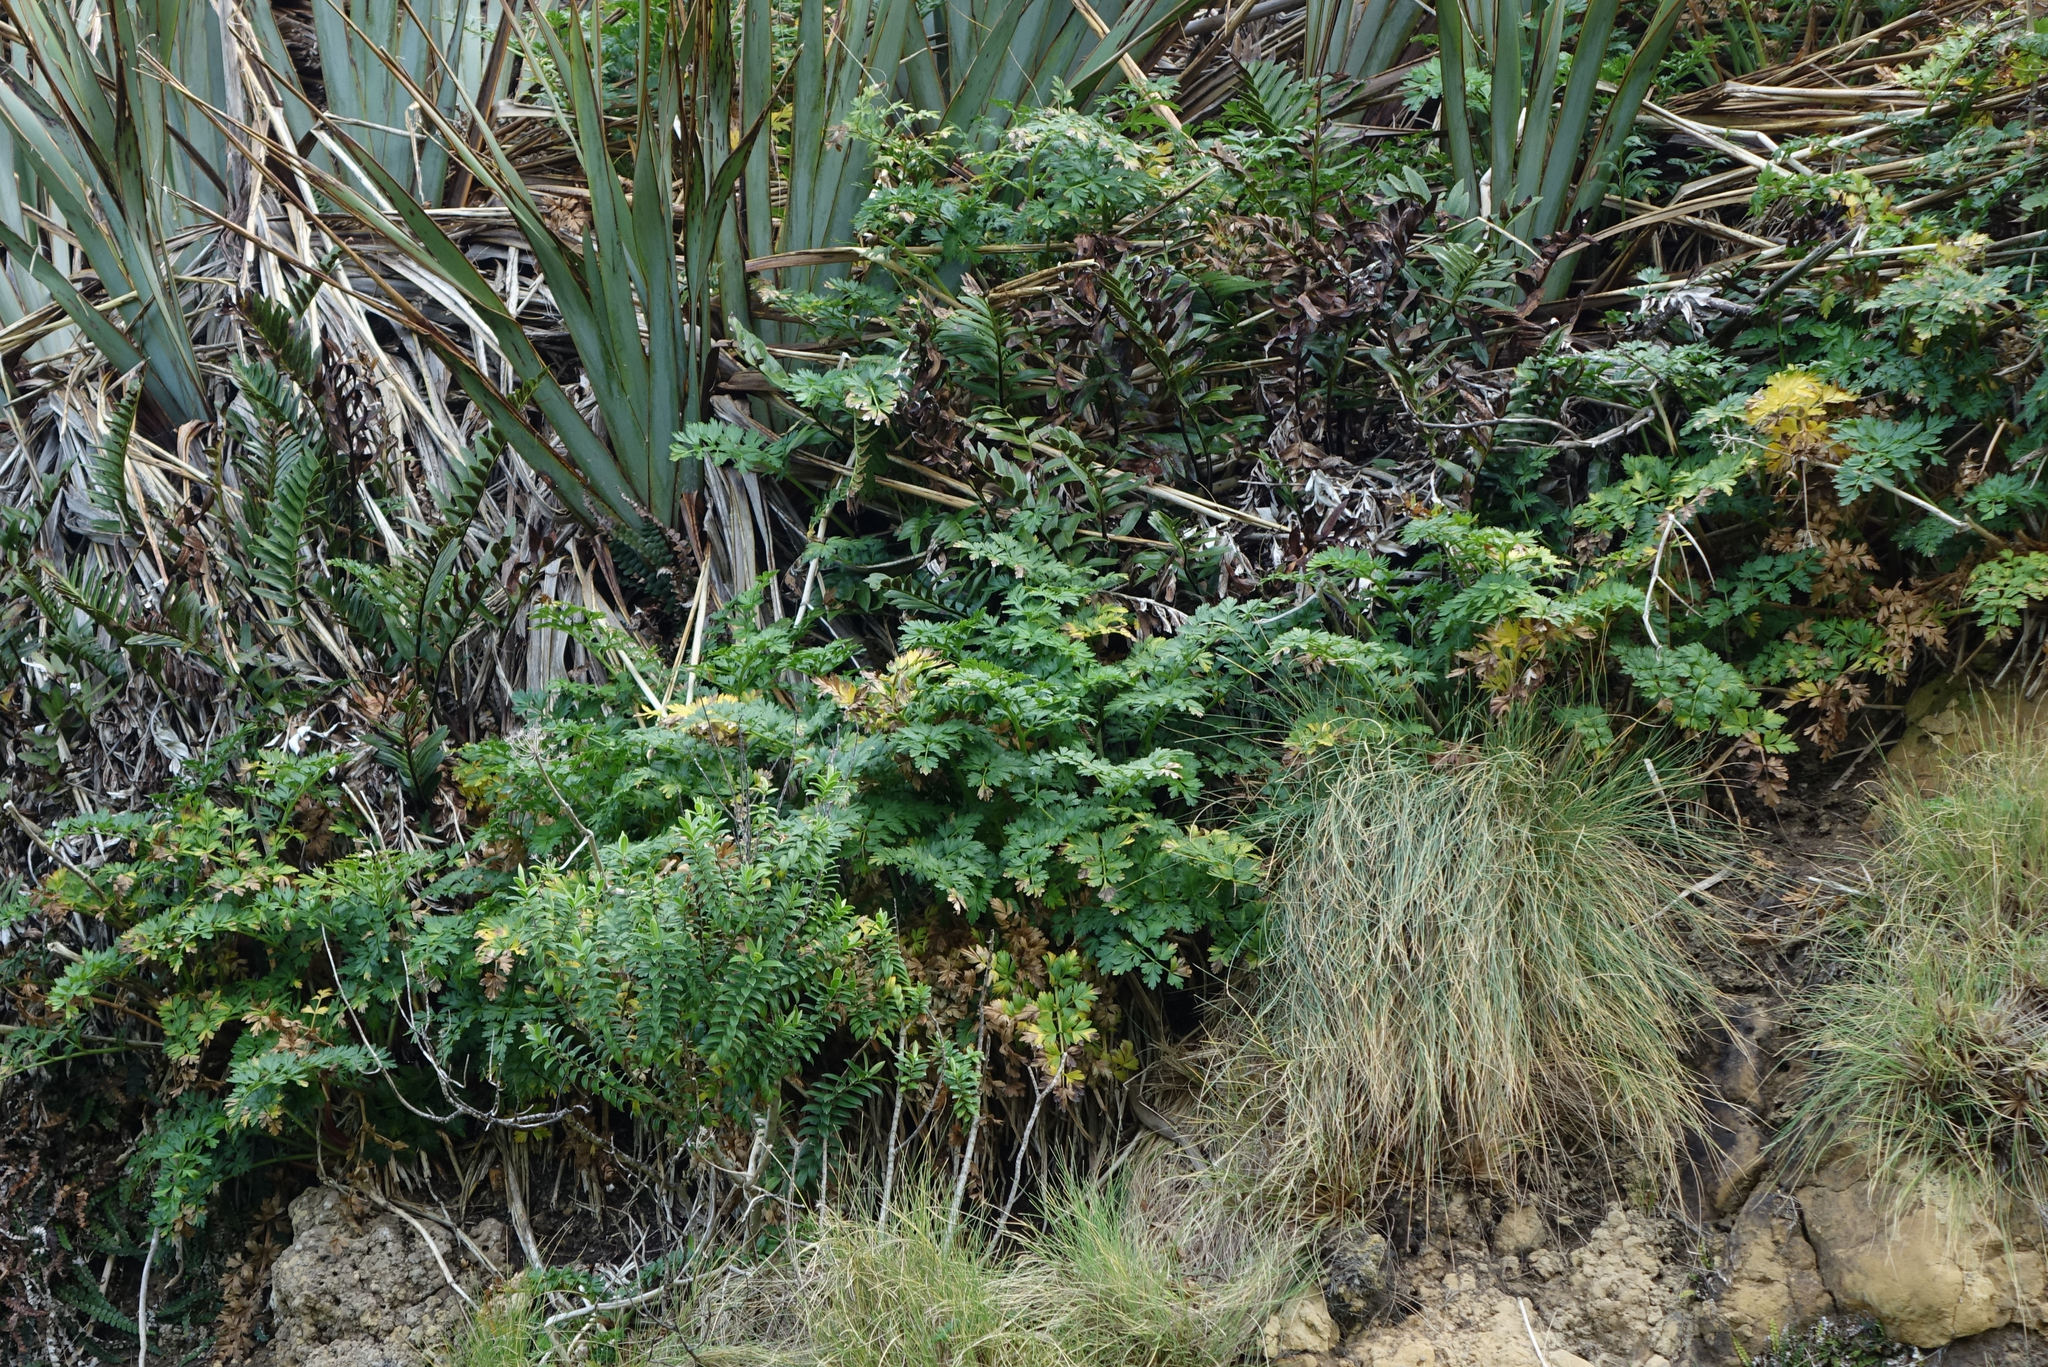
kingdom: Plantae
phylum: Tracheophyta
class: Magnoliopsida
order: Apiales
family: Apiaceae
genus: Anisotome
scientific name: Anisotome lyallii
